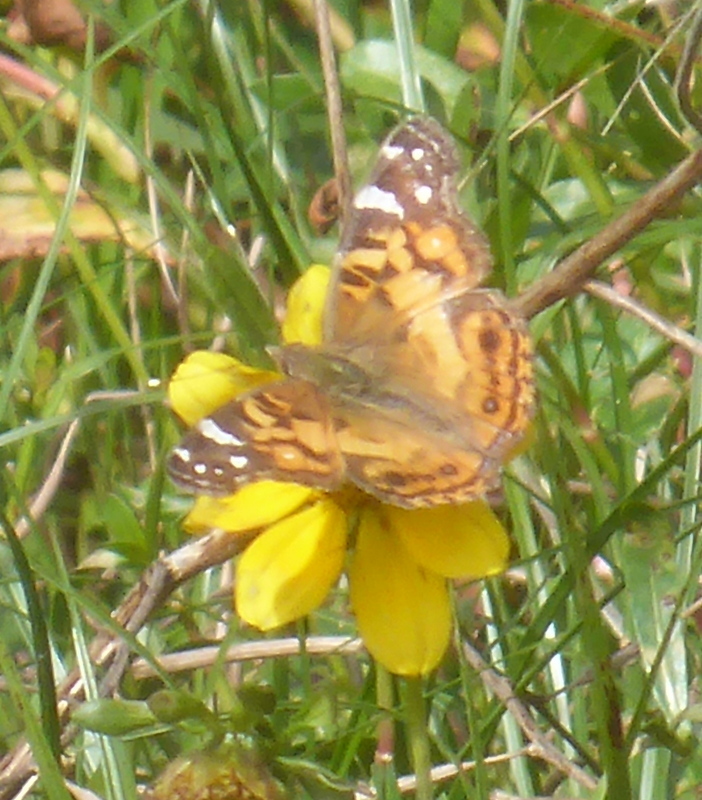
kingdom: Animalia
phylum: Arthropoda
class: Insecta
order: Lepidoptera
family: Nymphalidae
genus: Vanessa
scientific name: Vanessa virginiensis
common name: American lady
